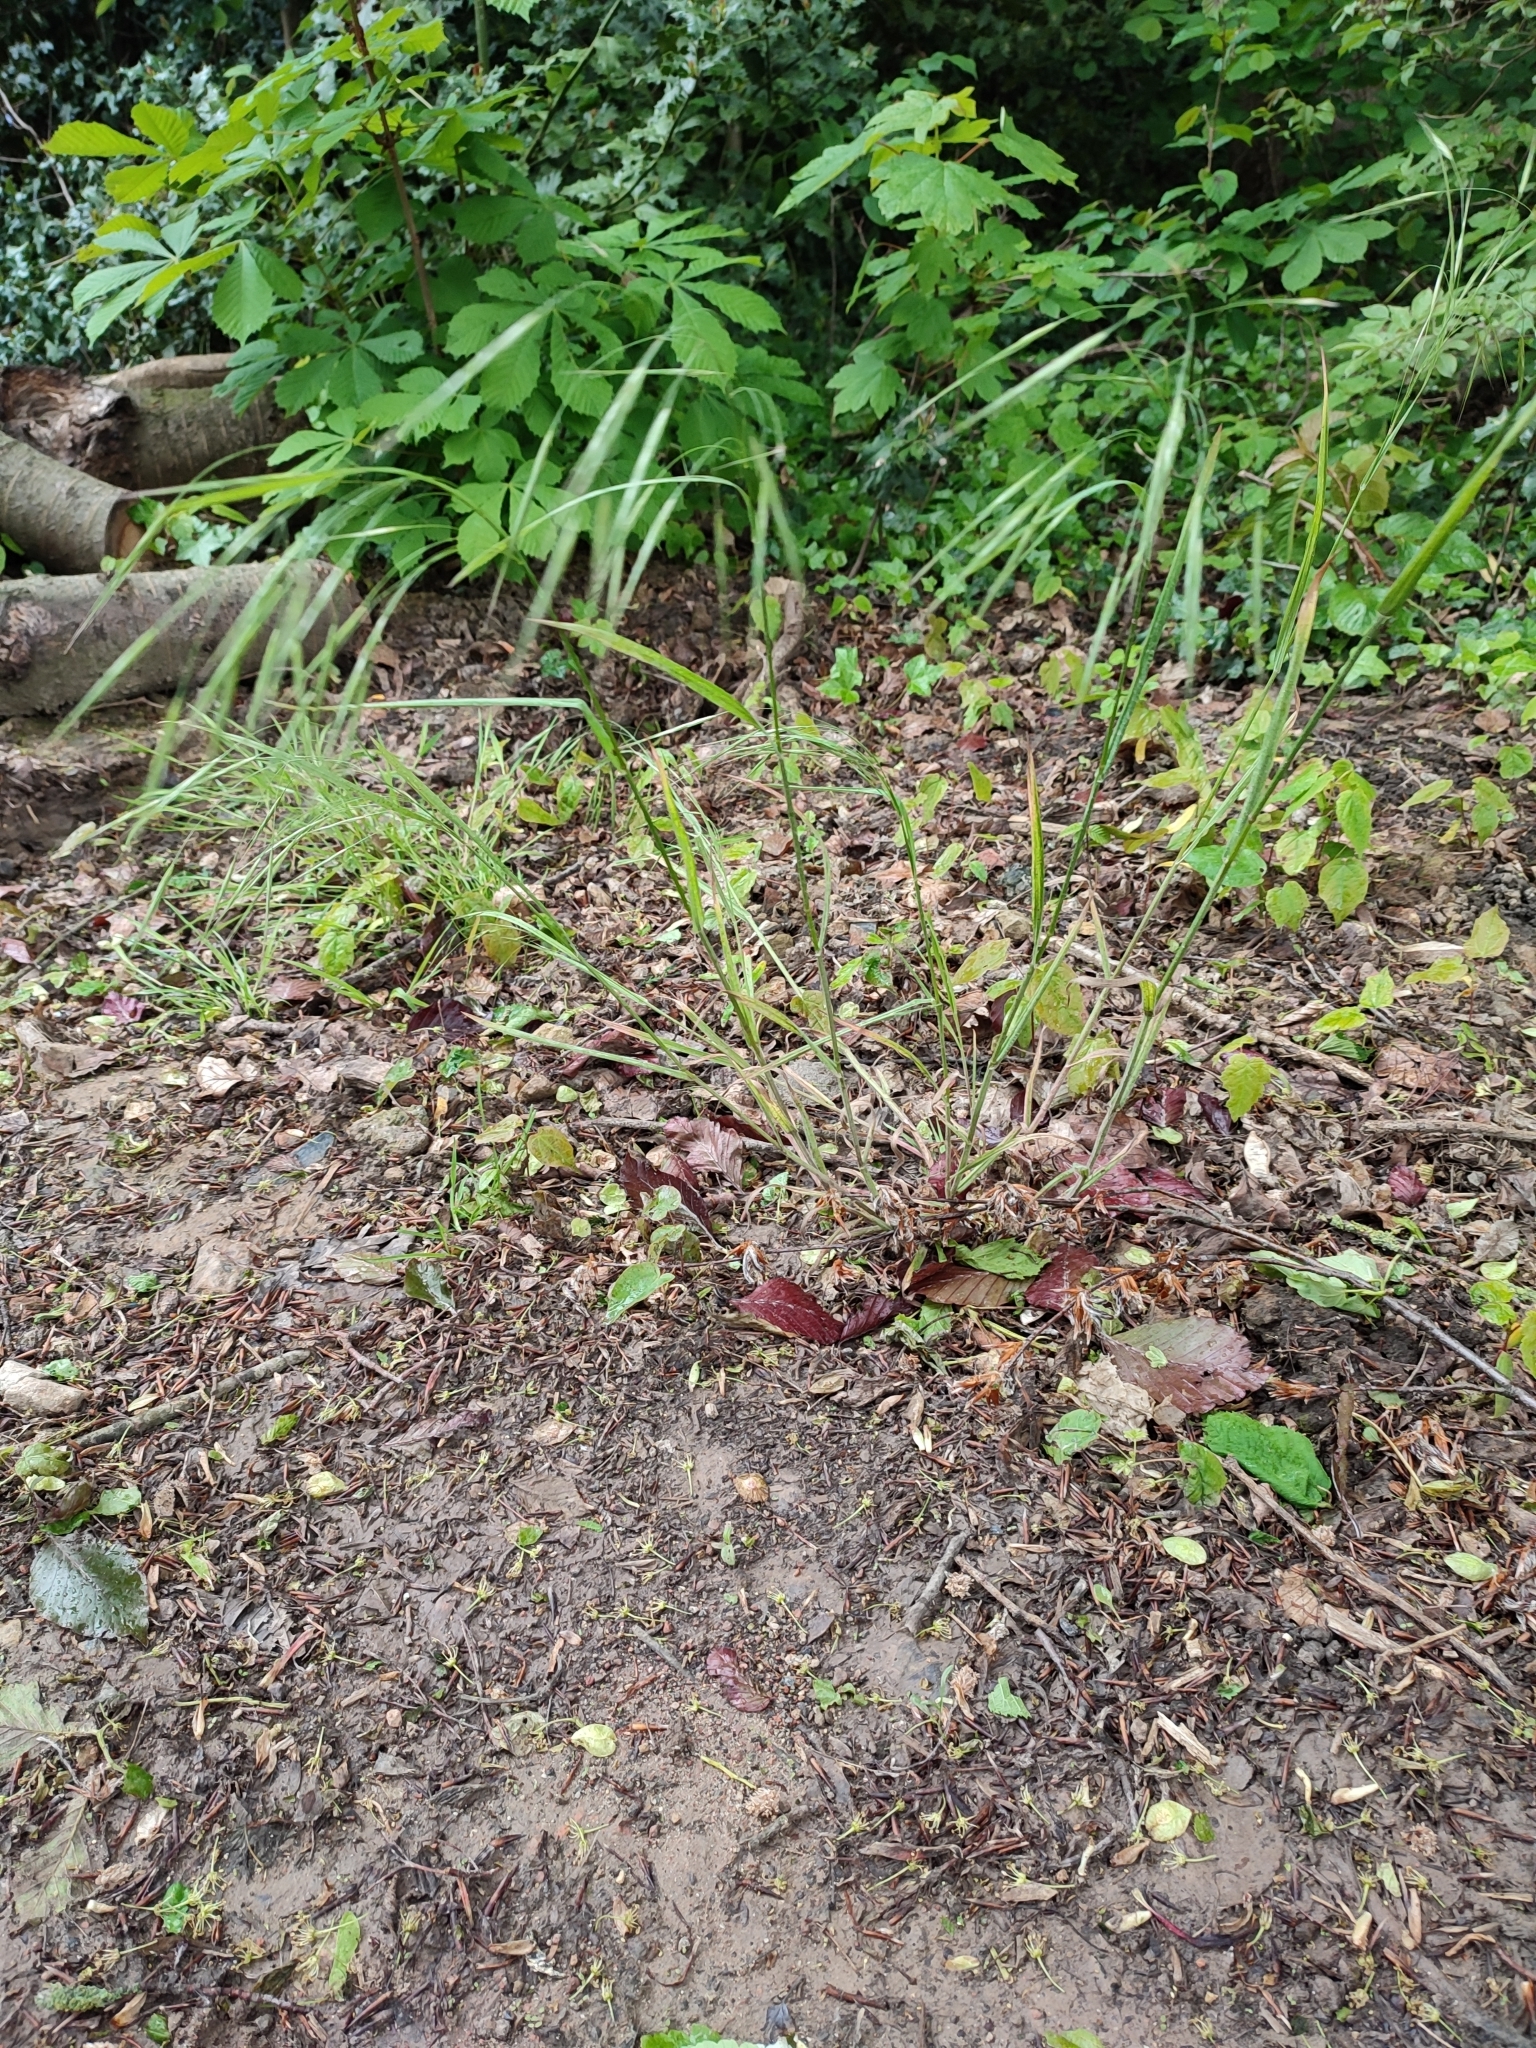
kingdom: Plantae
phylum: Tracheophyta
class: Liliopsida
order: Poales
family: Poaceae
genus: Bromus
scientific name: Bromus sterilis
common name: Poverty brome
